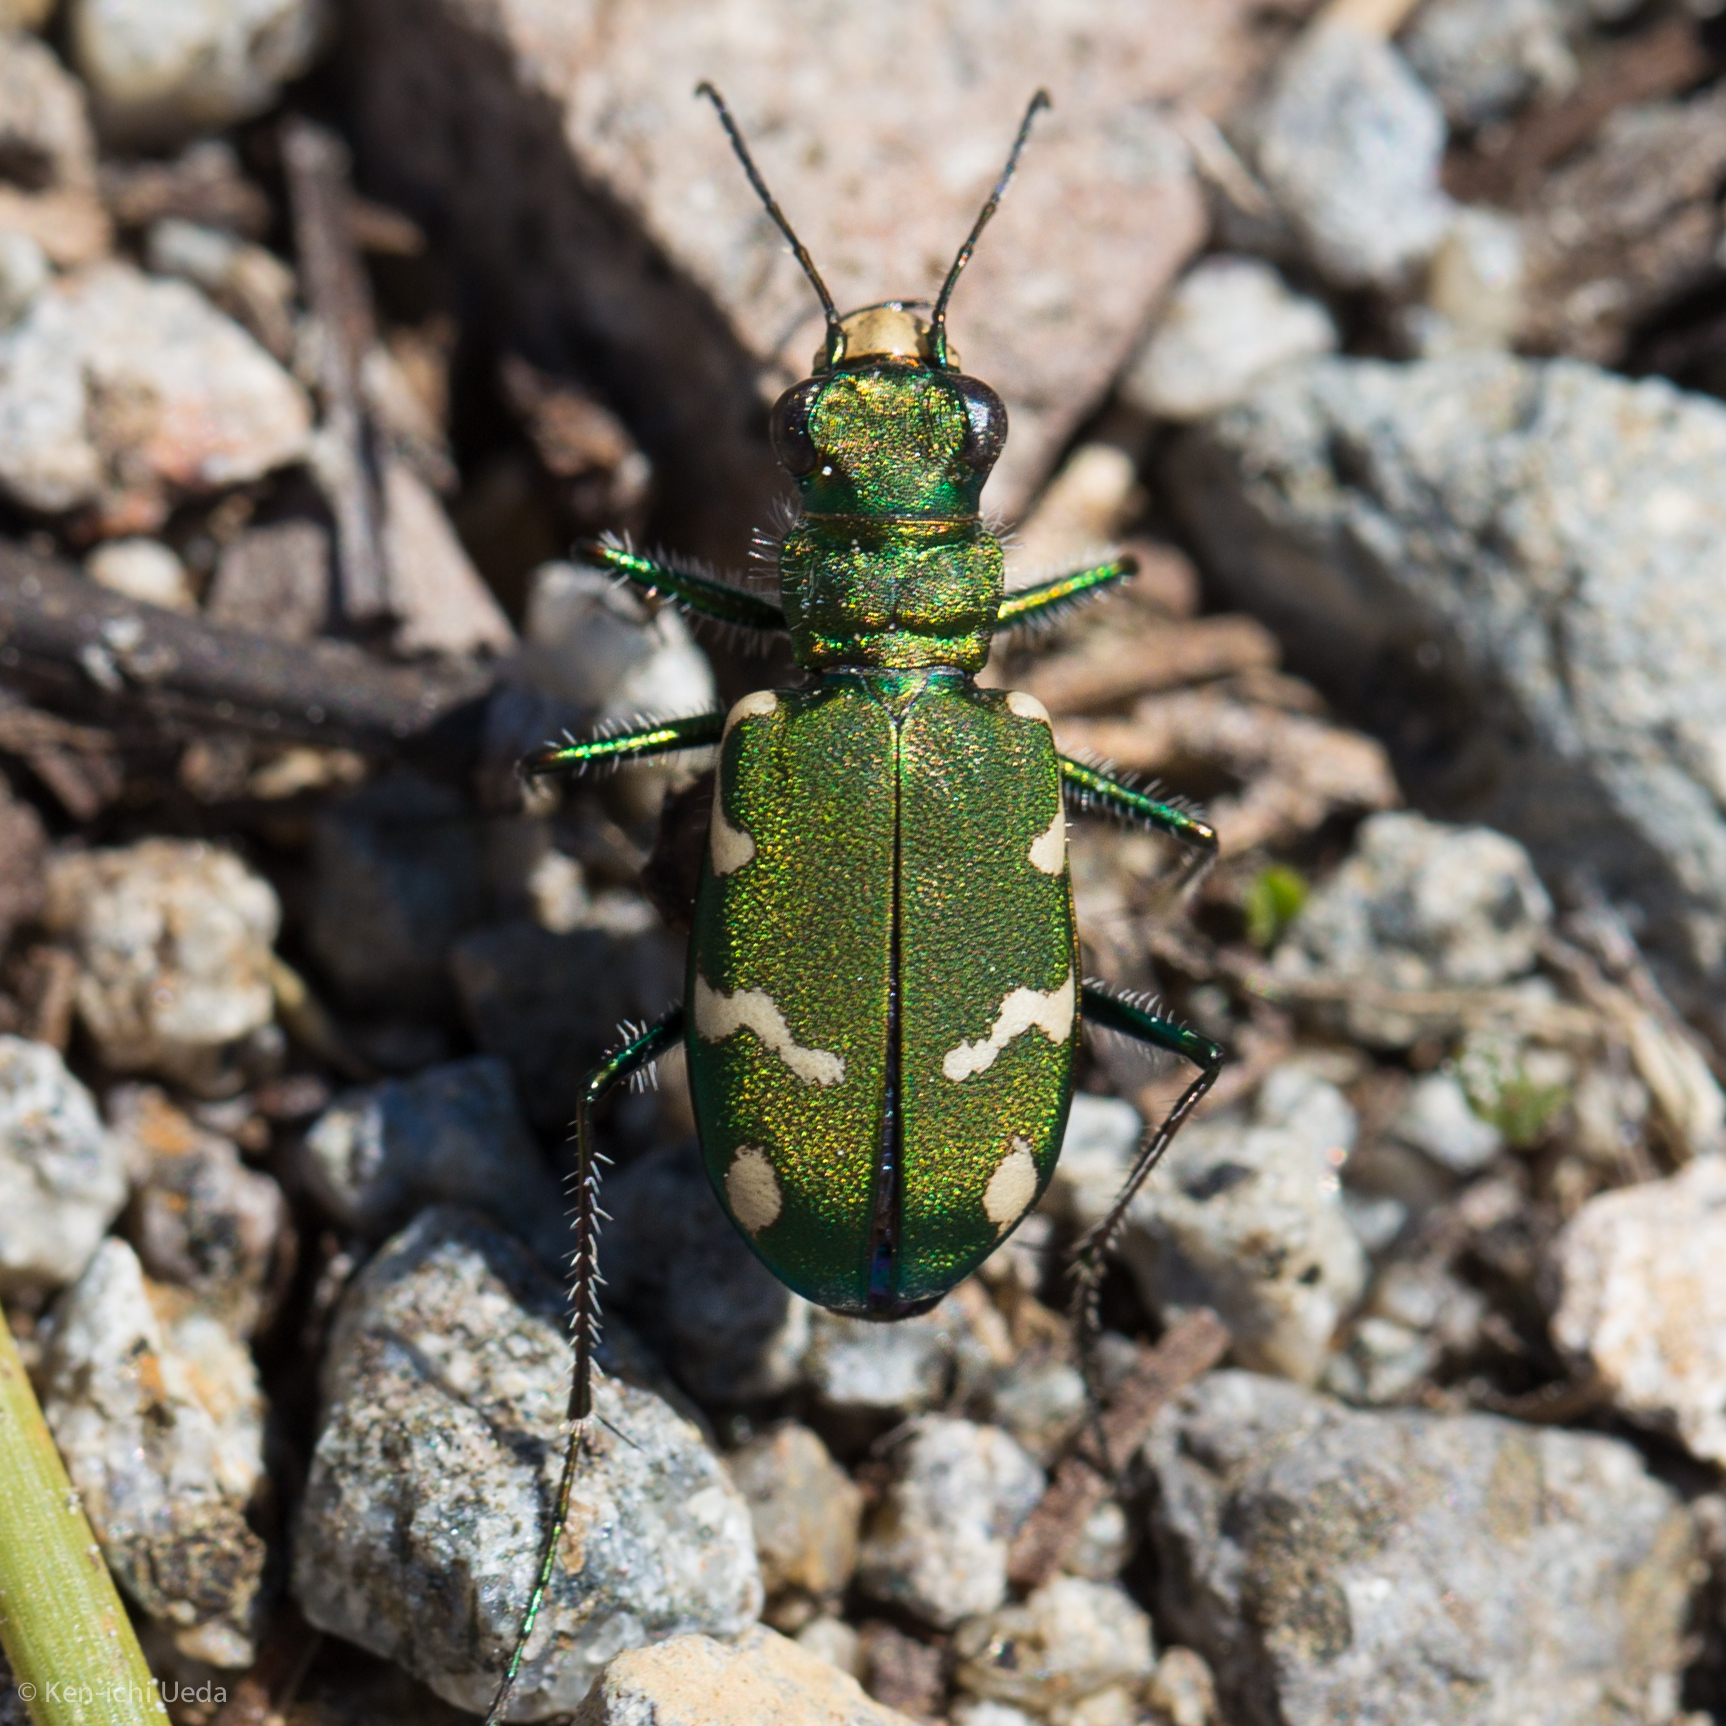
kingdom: Animalia
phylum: Arthropoda
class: Insecta
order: Coleoptera
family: Carabidae
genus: Cicindela
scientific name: Cicindela longilabris
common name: Boreal long-lipped tiger beetle
